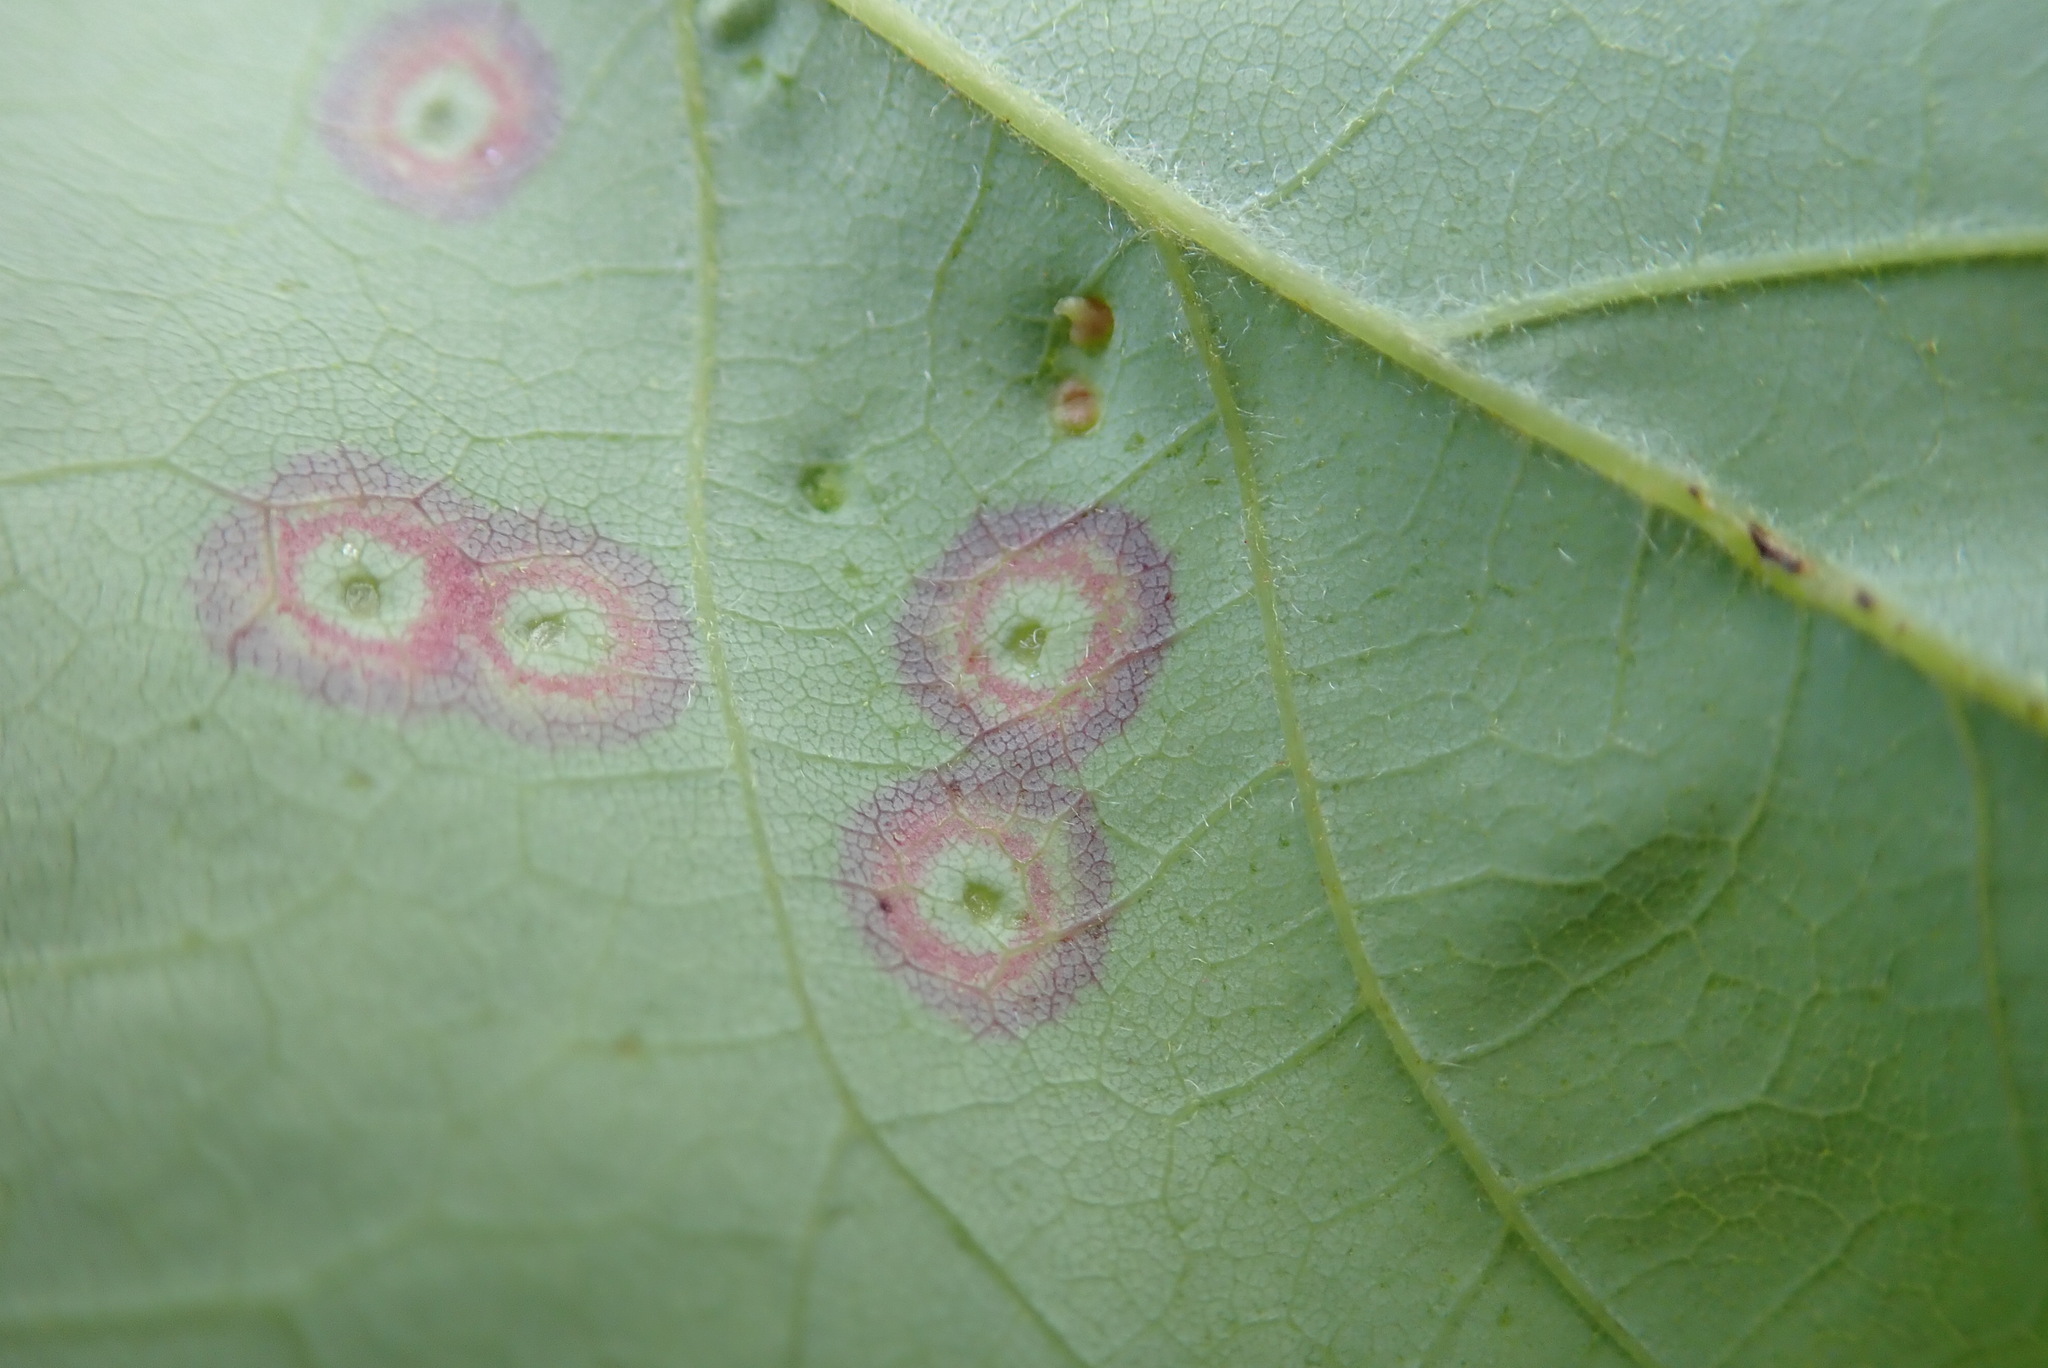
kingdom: Animalia
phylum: Arthropoda
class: Insecta
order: Diptera
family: Cecidomyiidae
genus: Acericecis
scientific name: Acericecis ocellaris
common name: Ocellate gall midge
